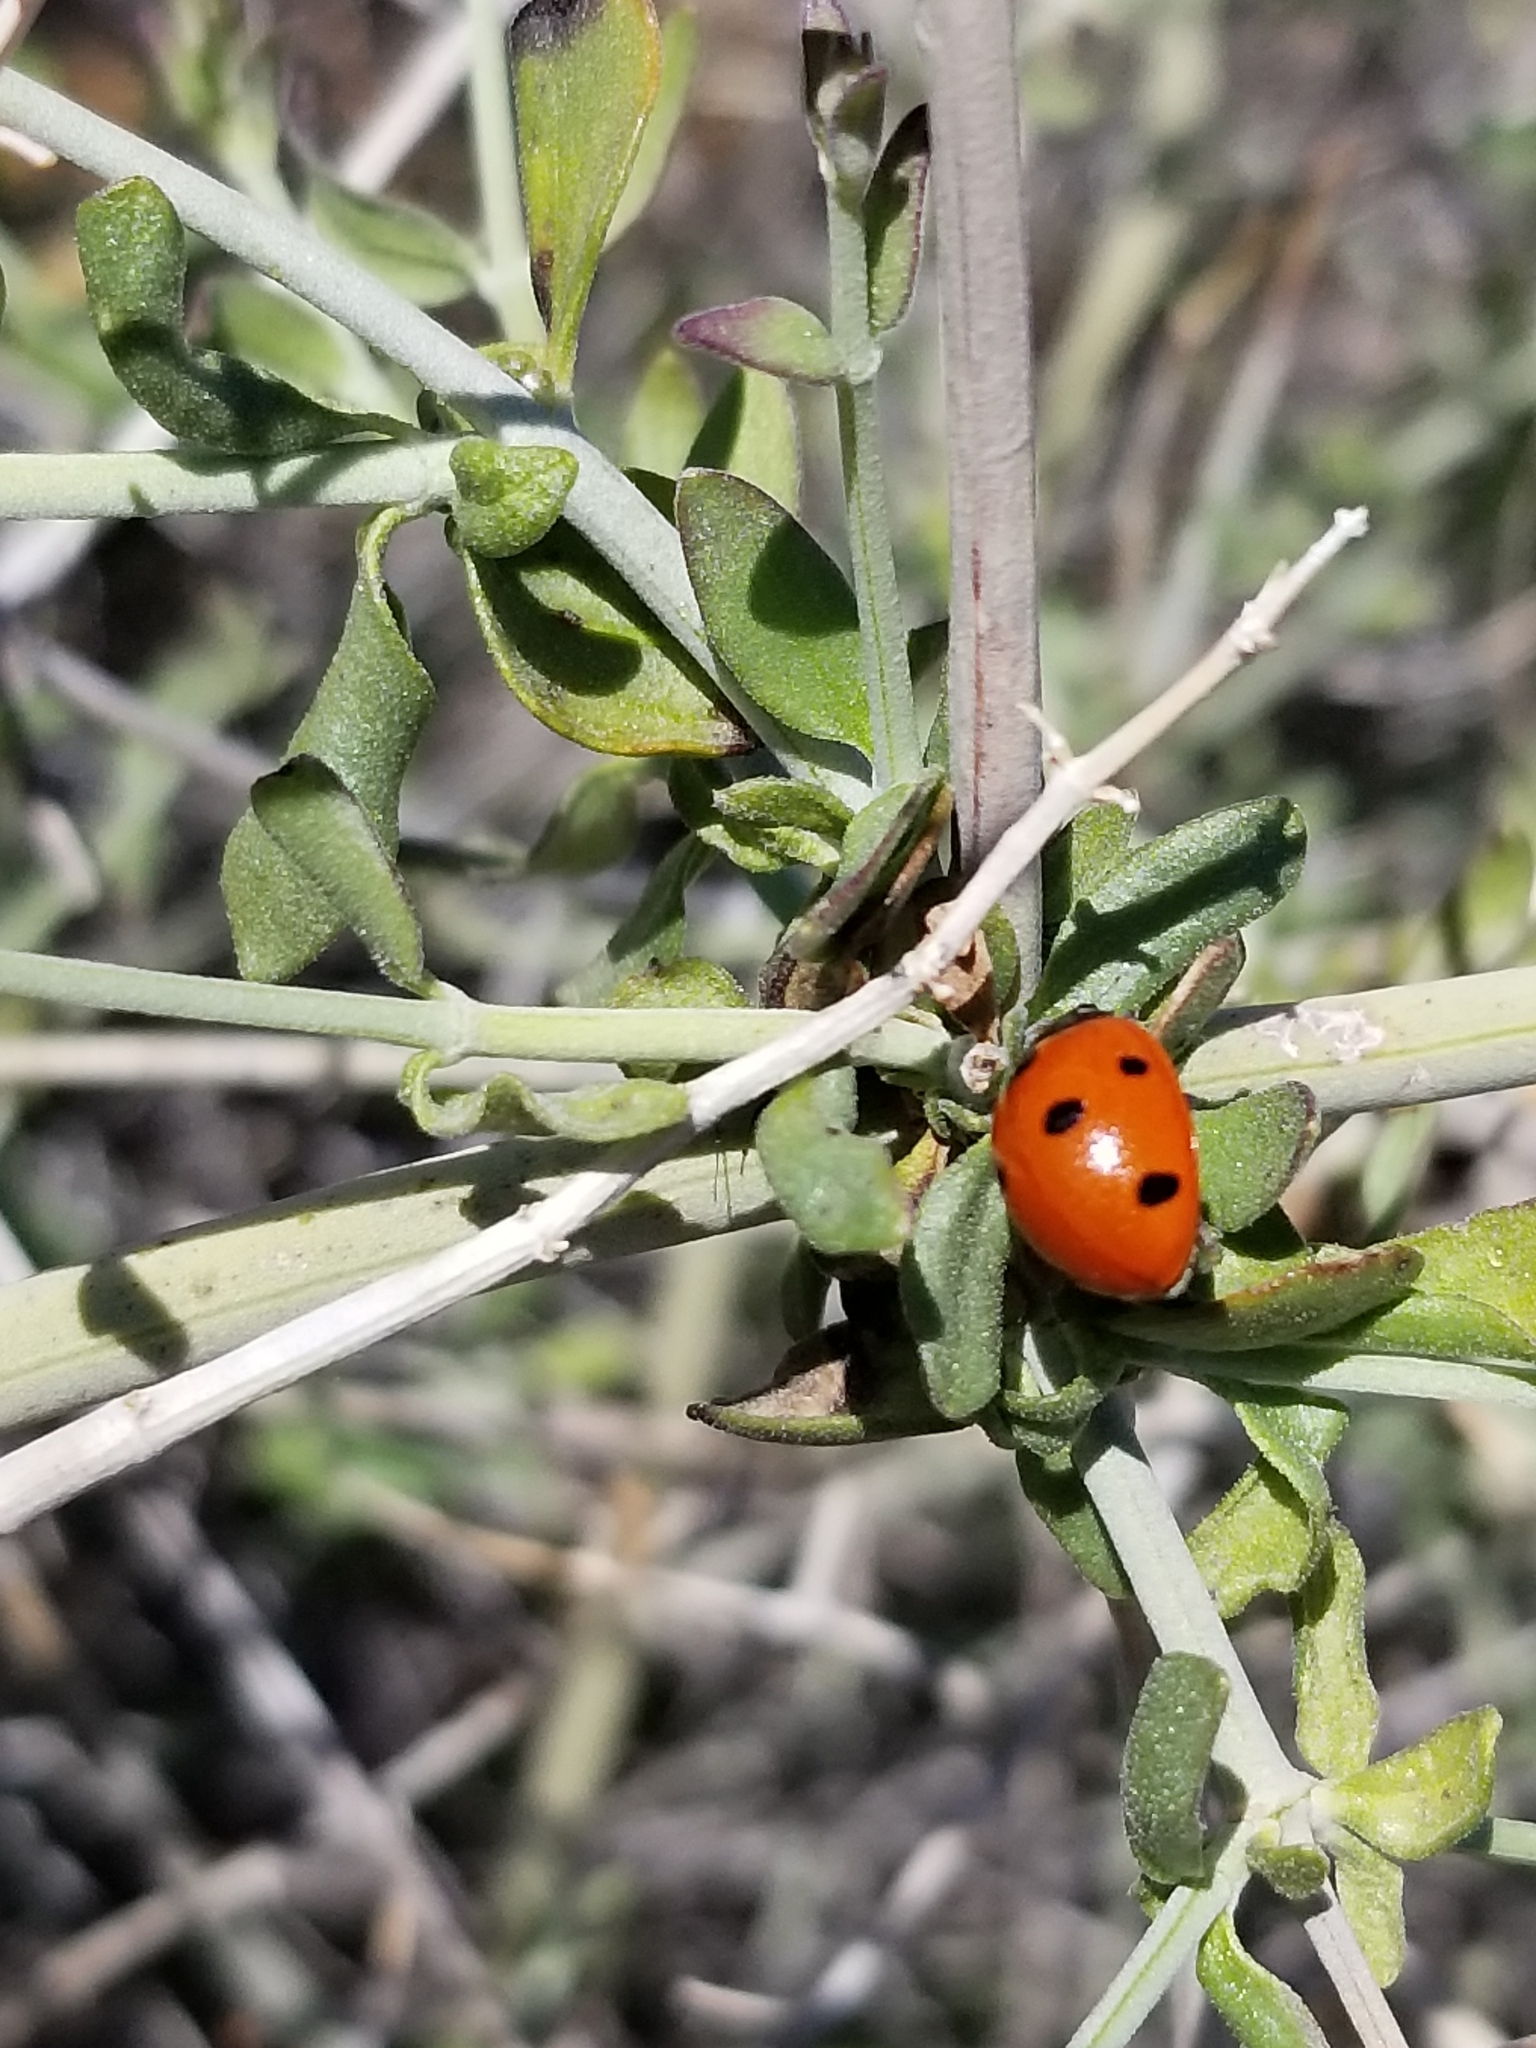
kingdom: Animalia
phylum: Arthropoda
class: Insecta
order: Coleoptera
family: Coccinellidae
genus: Coccinella
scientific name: Coccinella septempunctata
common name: Sevenspotted lady beetle
